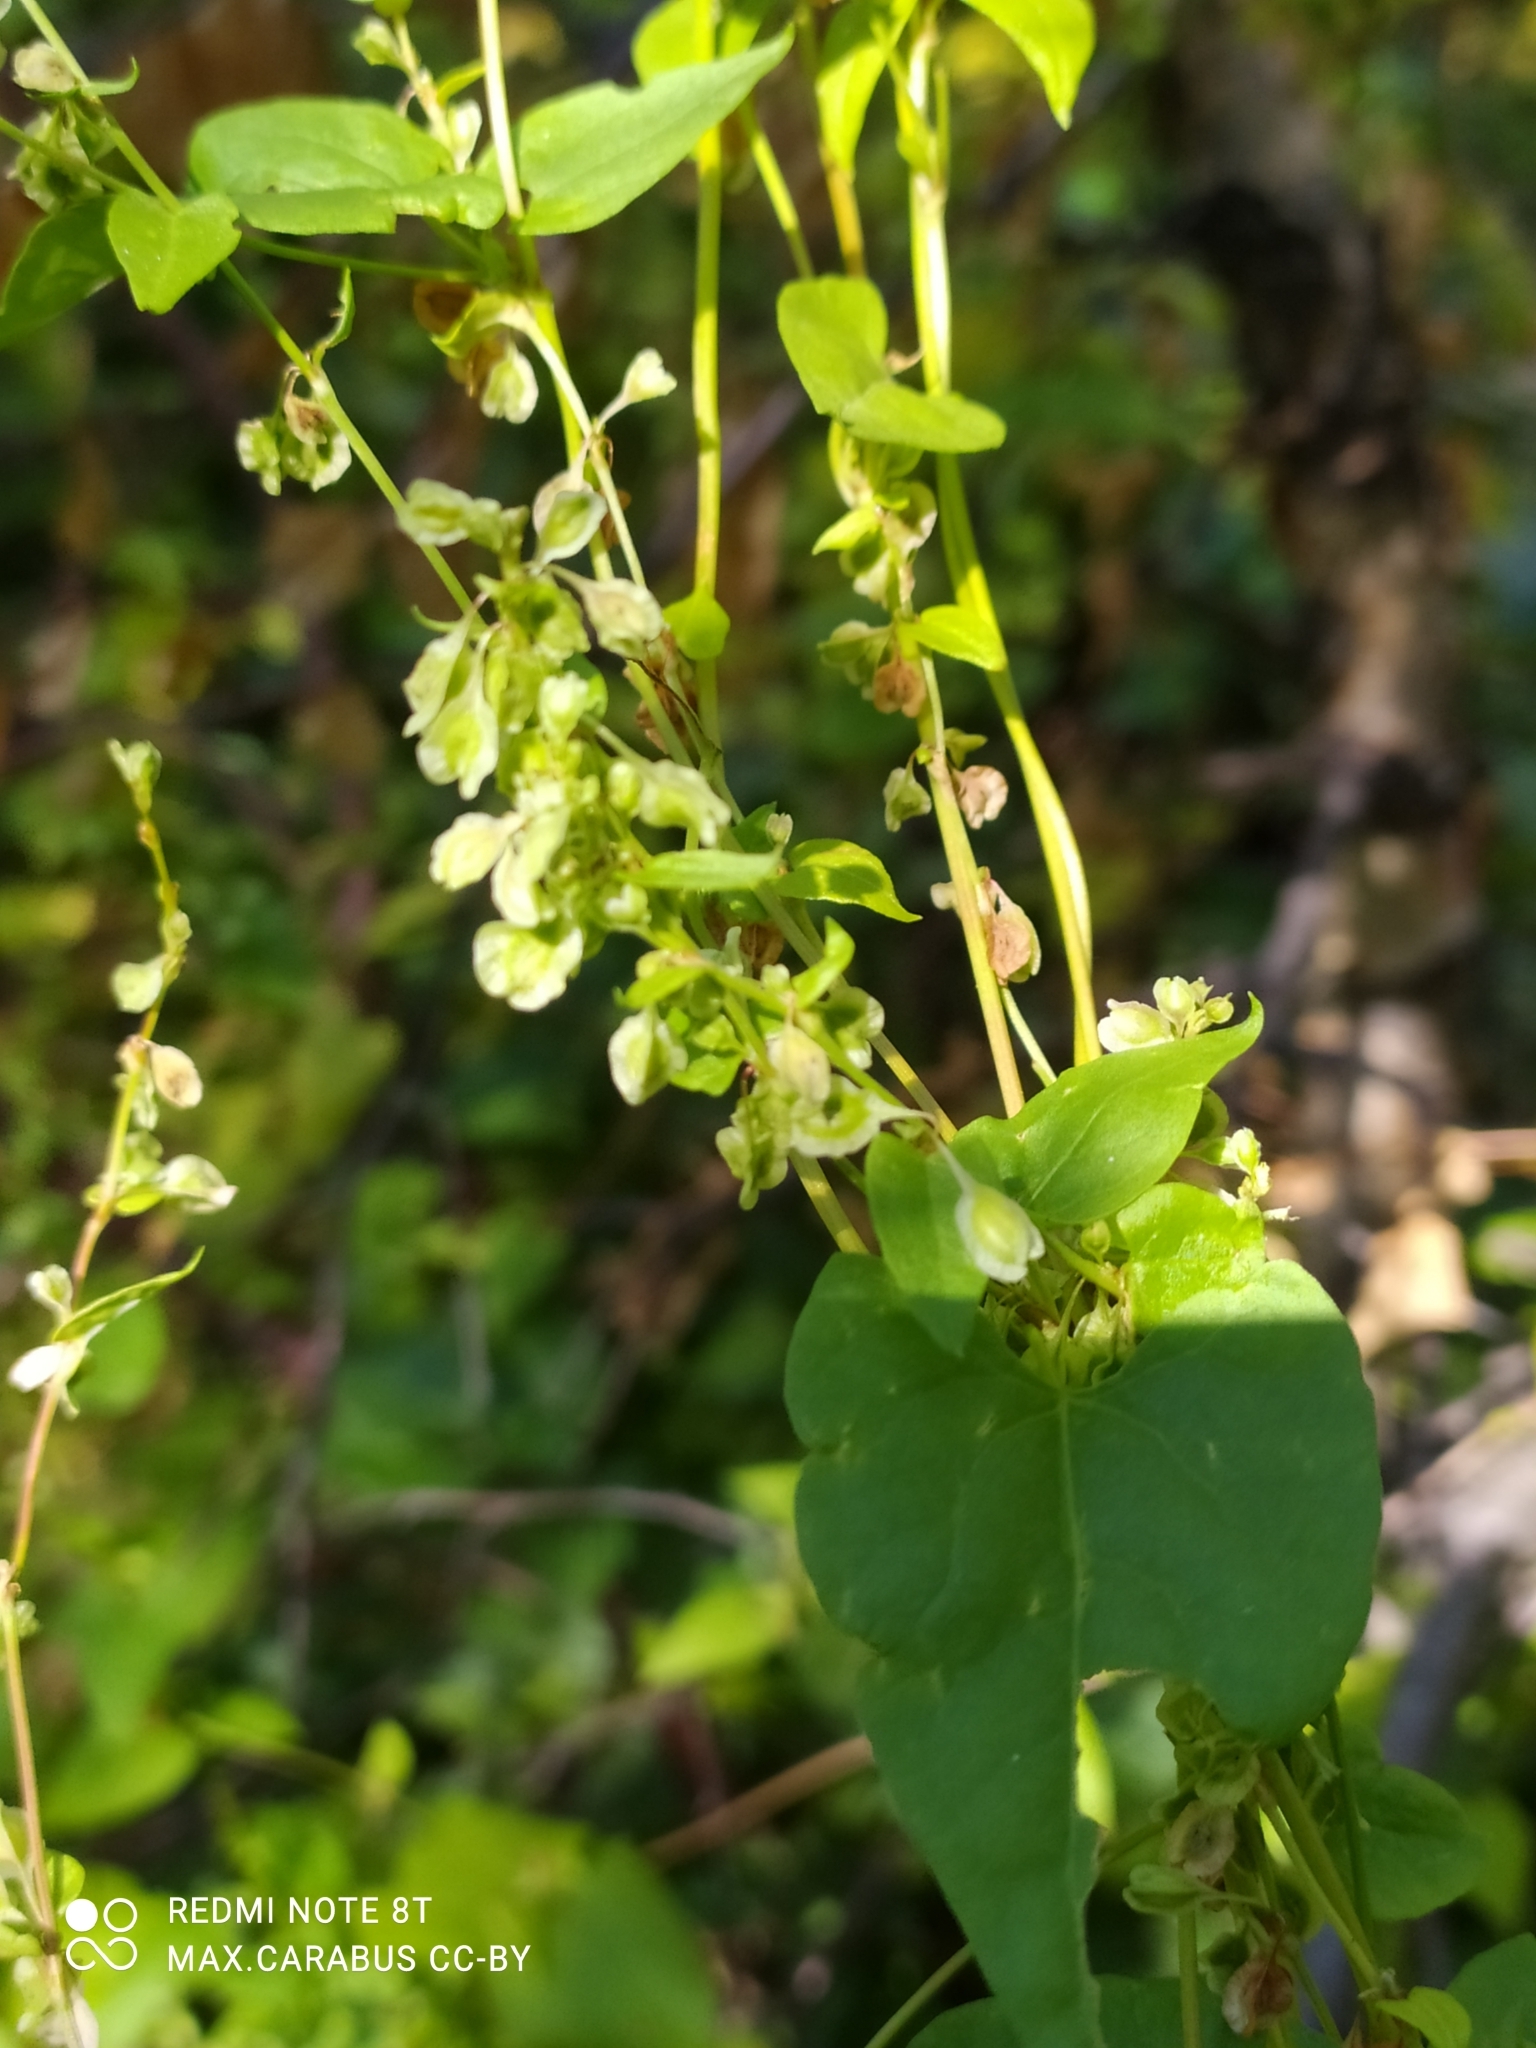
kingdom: Plantae
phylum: Tracheophyta
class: Magnoliopsida
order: Caryophyllales
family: Polygonaceae
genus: Fallopia
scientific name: Fallopia dumetorum
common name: Copse-bindweed
